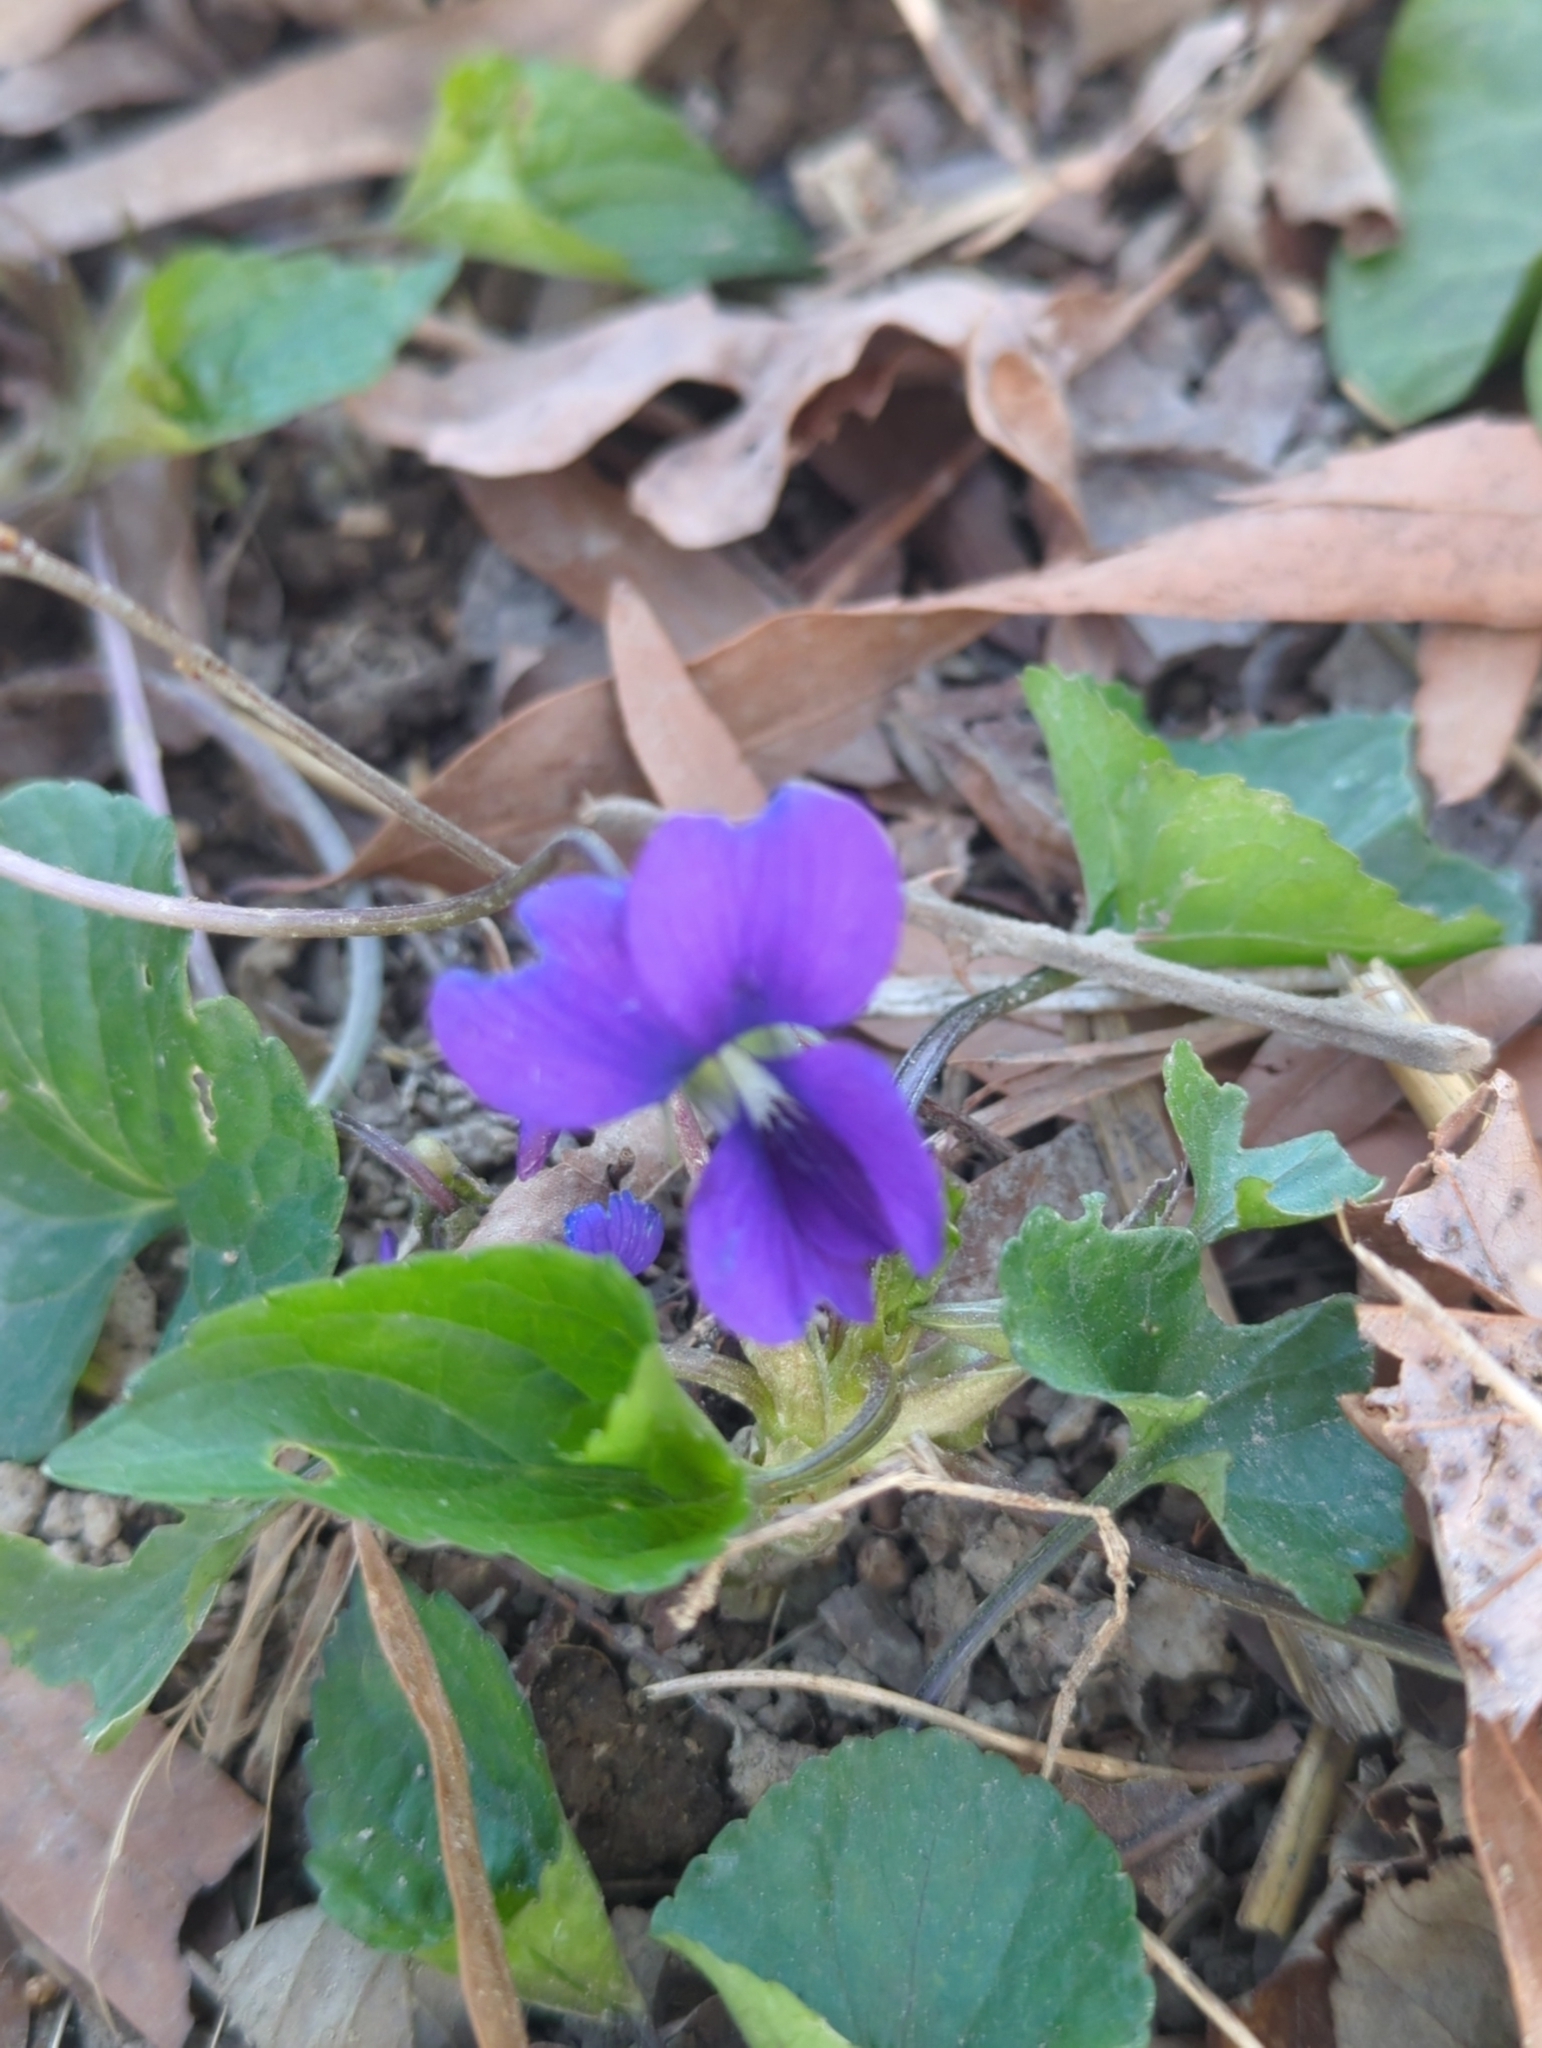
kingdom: Plantae
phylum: Tracheophyta
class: Magnoliopsida
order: Malpighiales
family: Violaceae
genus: Viola
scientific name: Viola sororia
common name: Dooryard violet
